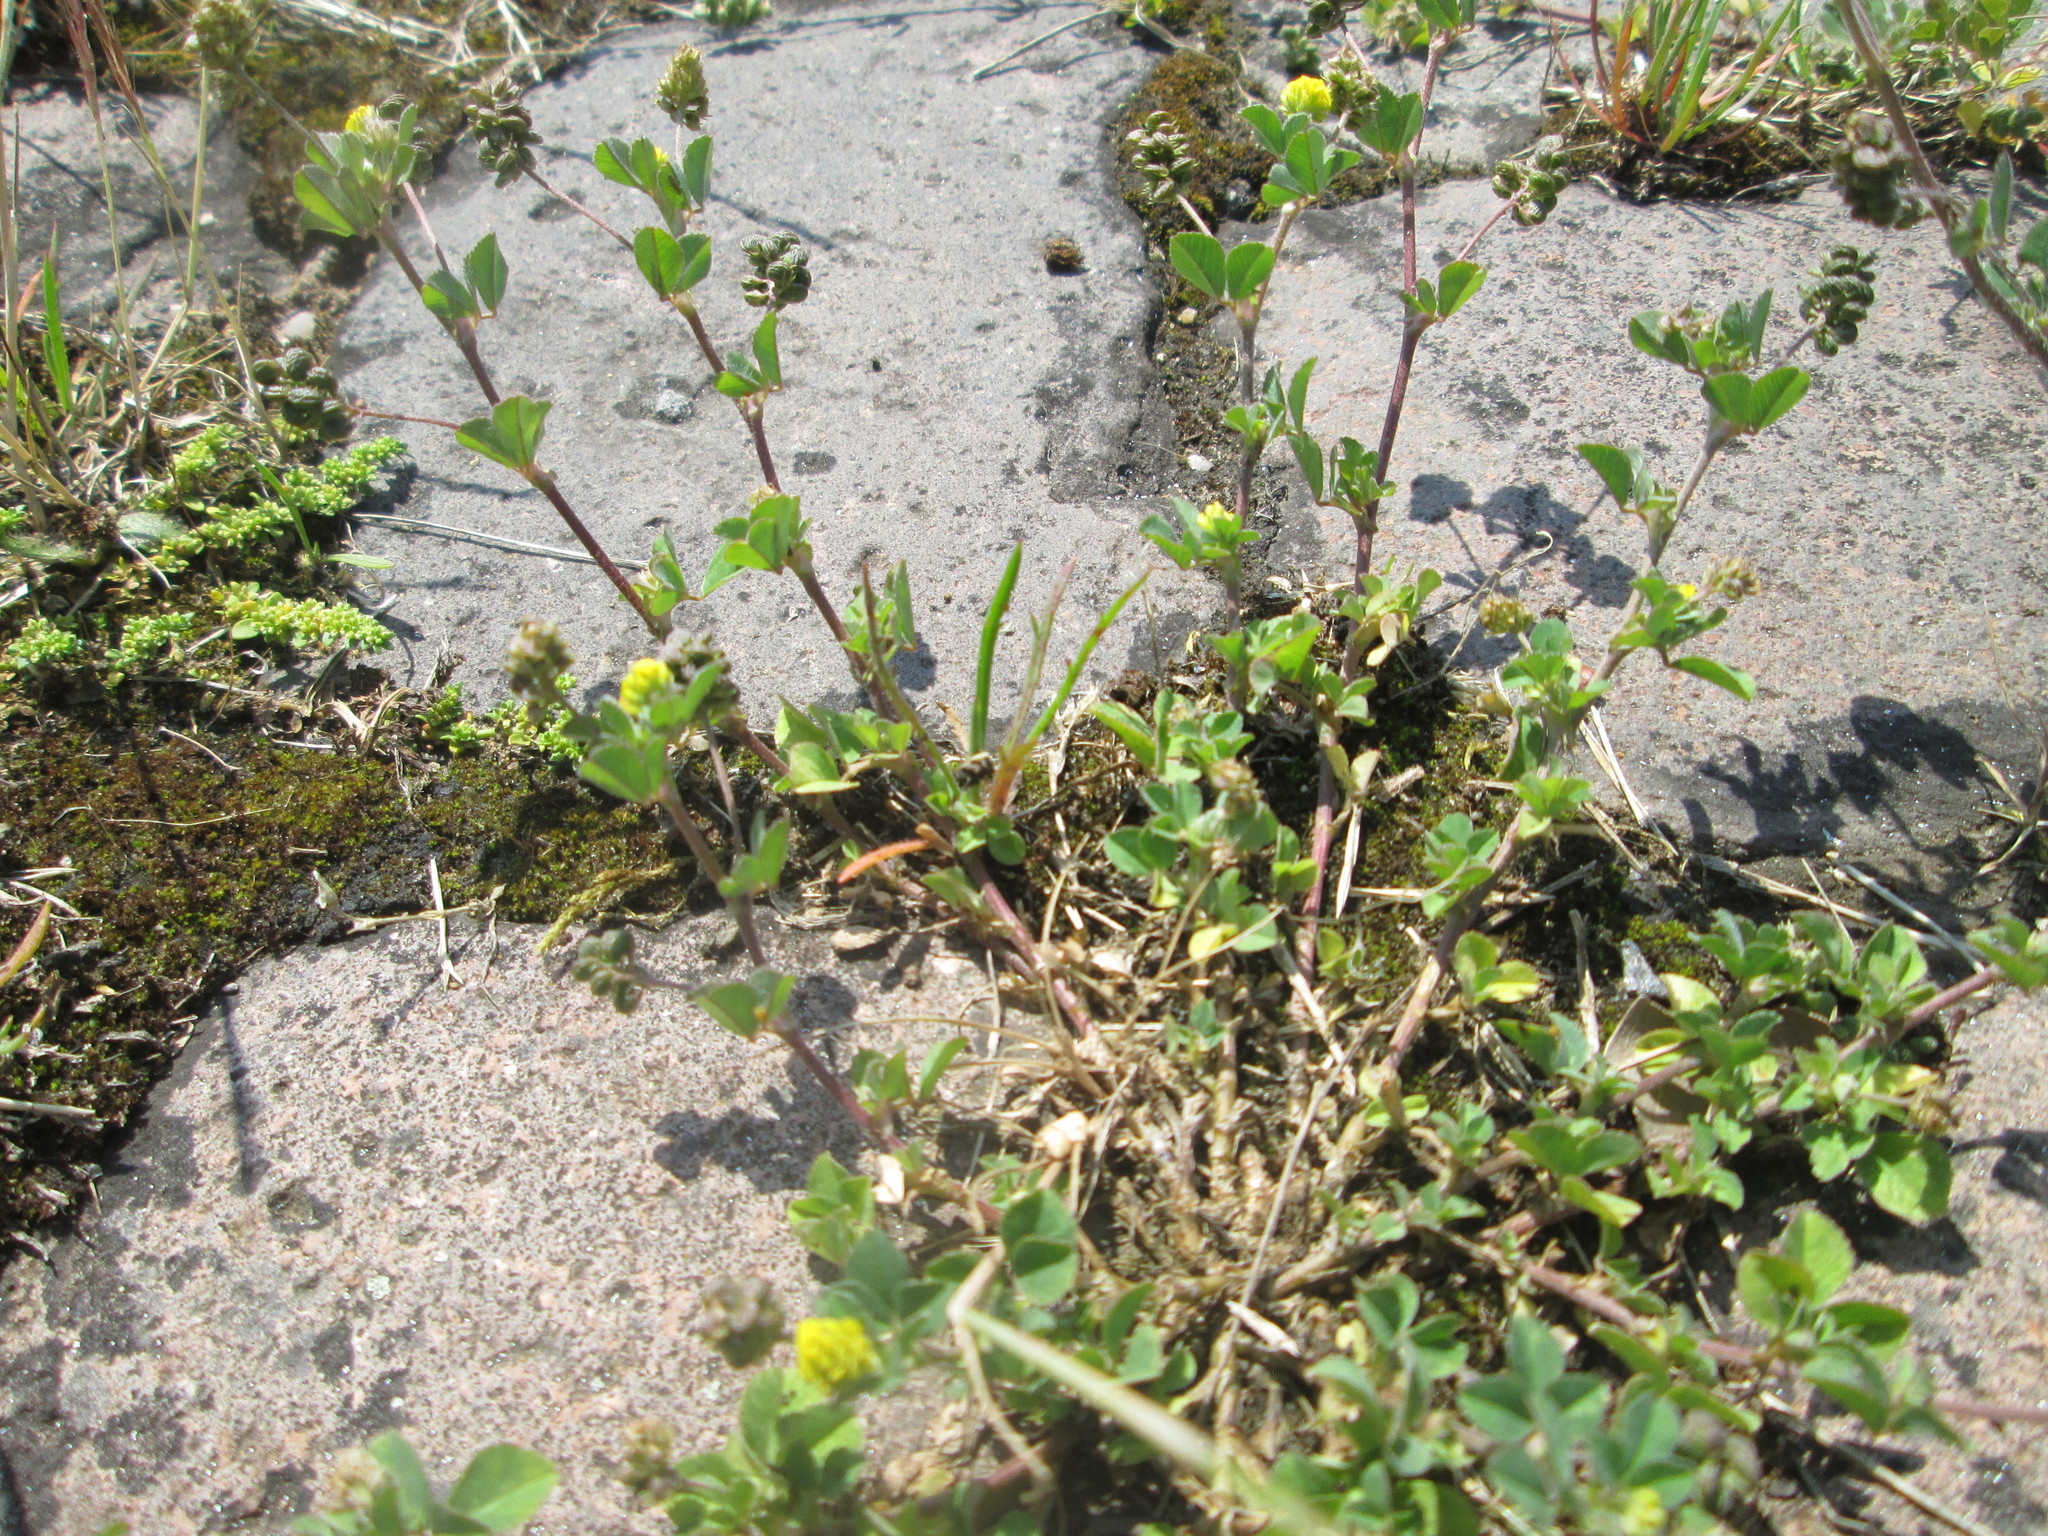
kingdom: Plantae
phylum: Tracheophyta
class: Magnoliopsida
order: Fabales
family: Fabaceae
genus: Medicago
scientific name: Medicago lupulina
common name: Black medick
